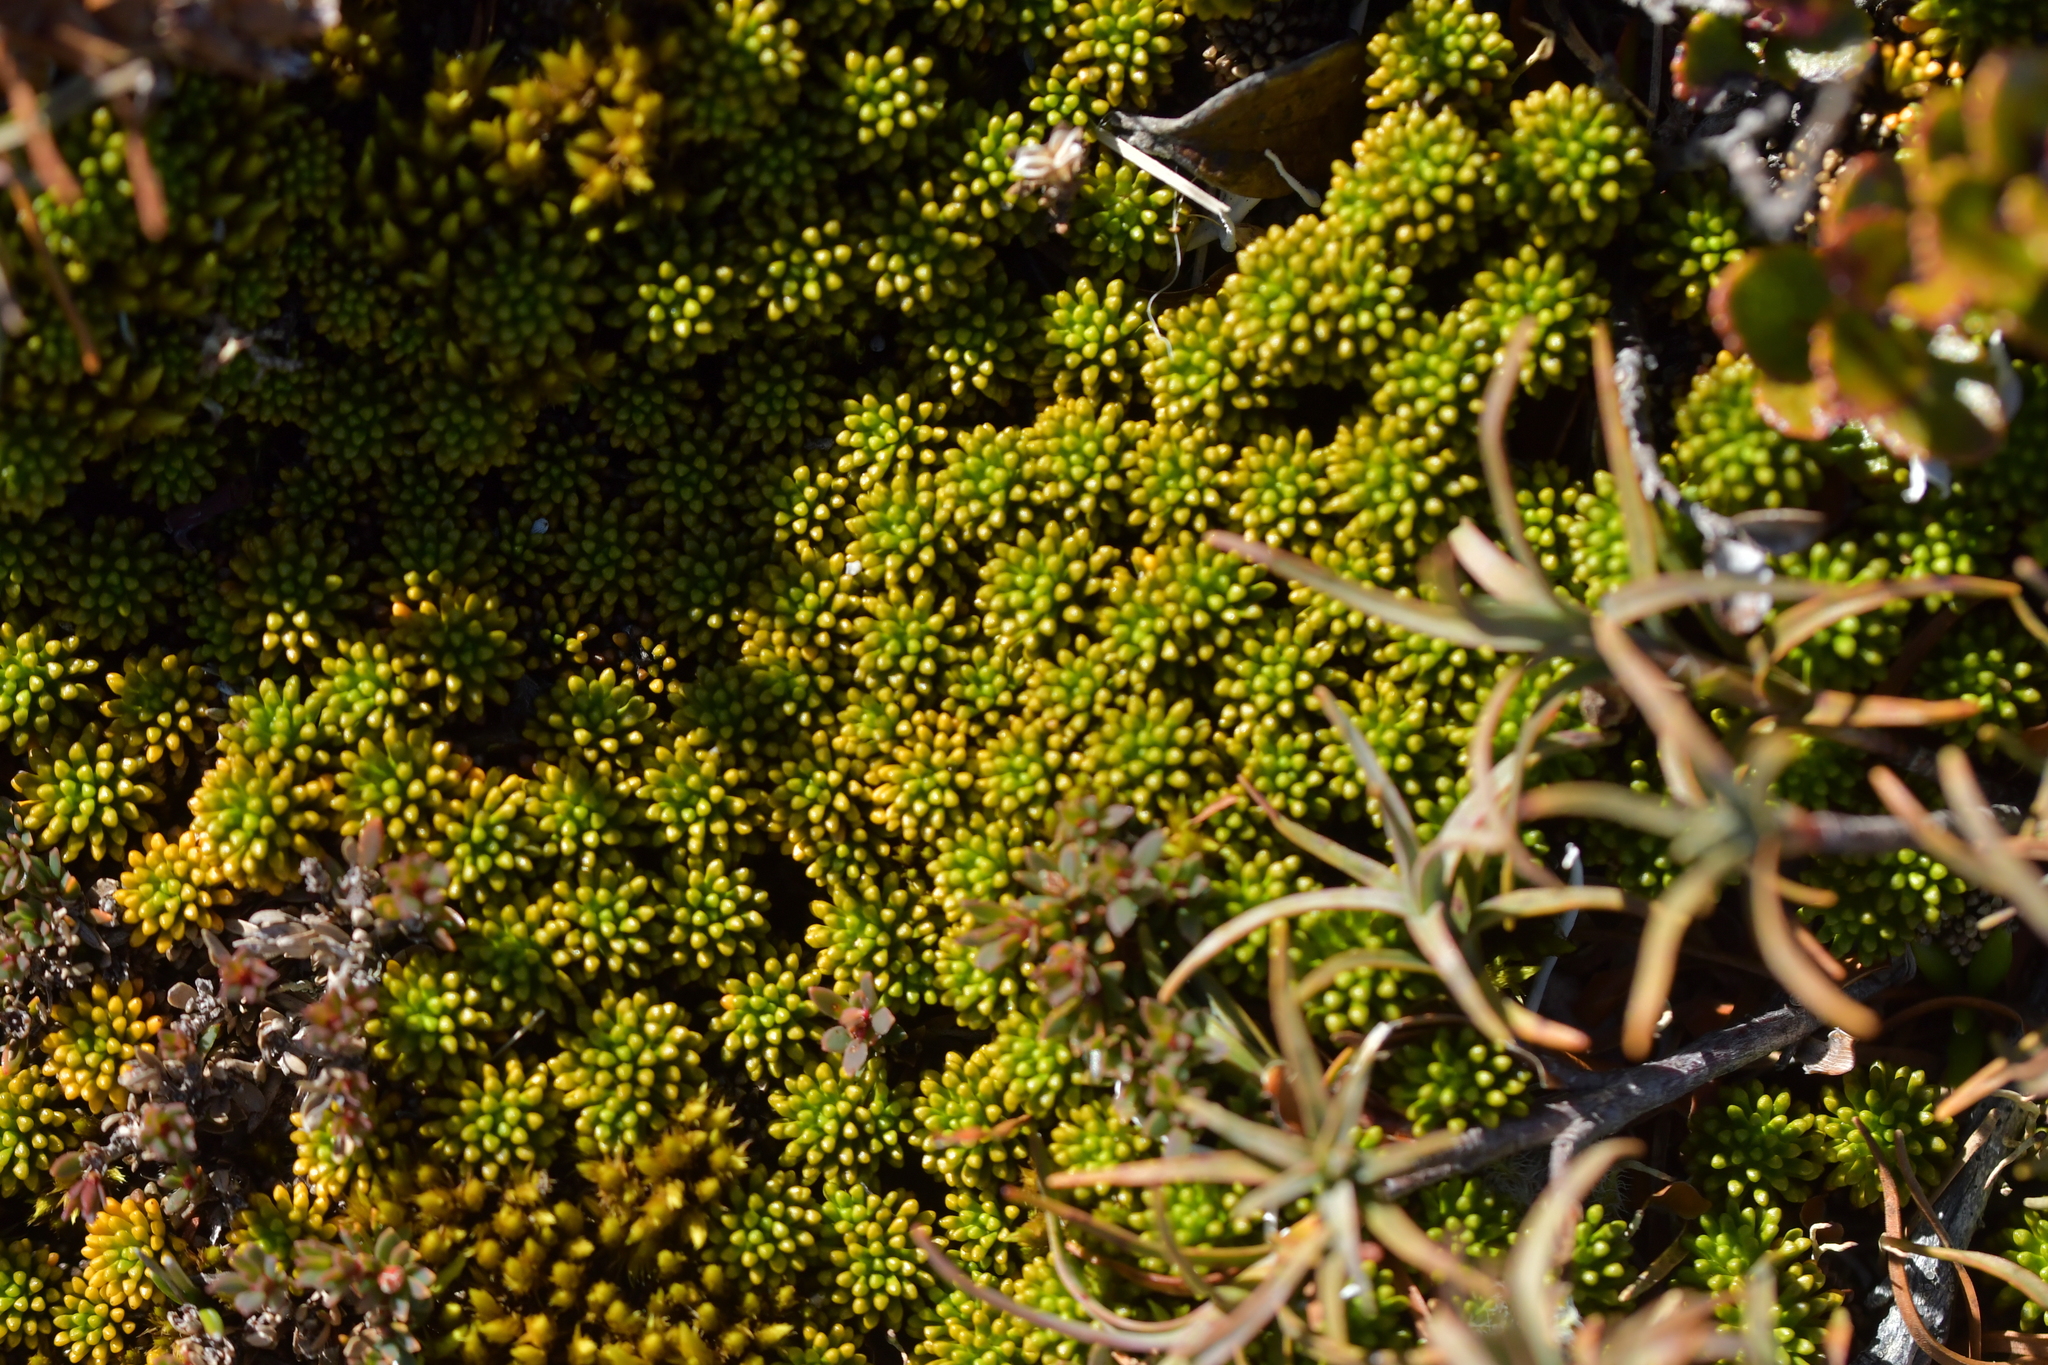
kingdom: Plantae
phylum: Tracheophyta
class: Magnoliopsida
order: Asterales
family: Stylidiaceae
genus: Phyllachne
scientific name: Phyllachne colensoi
